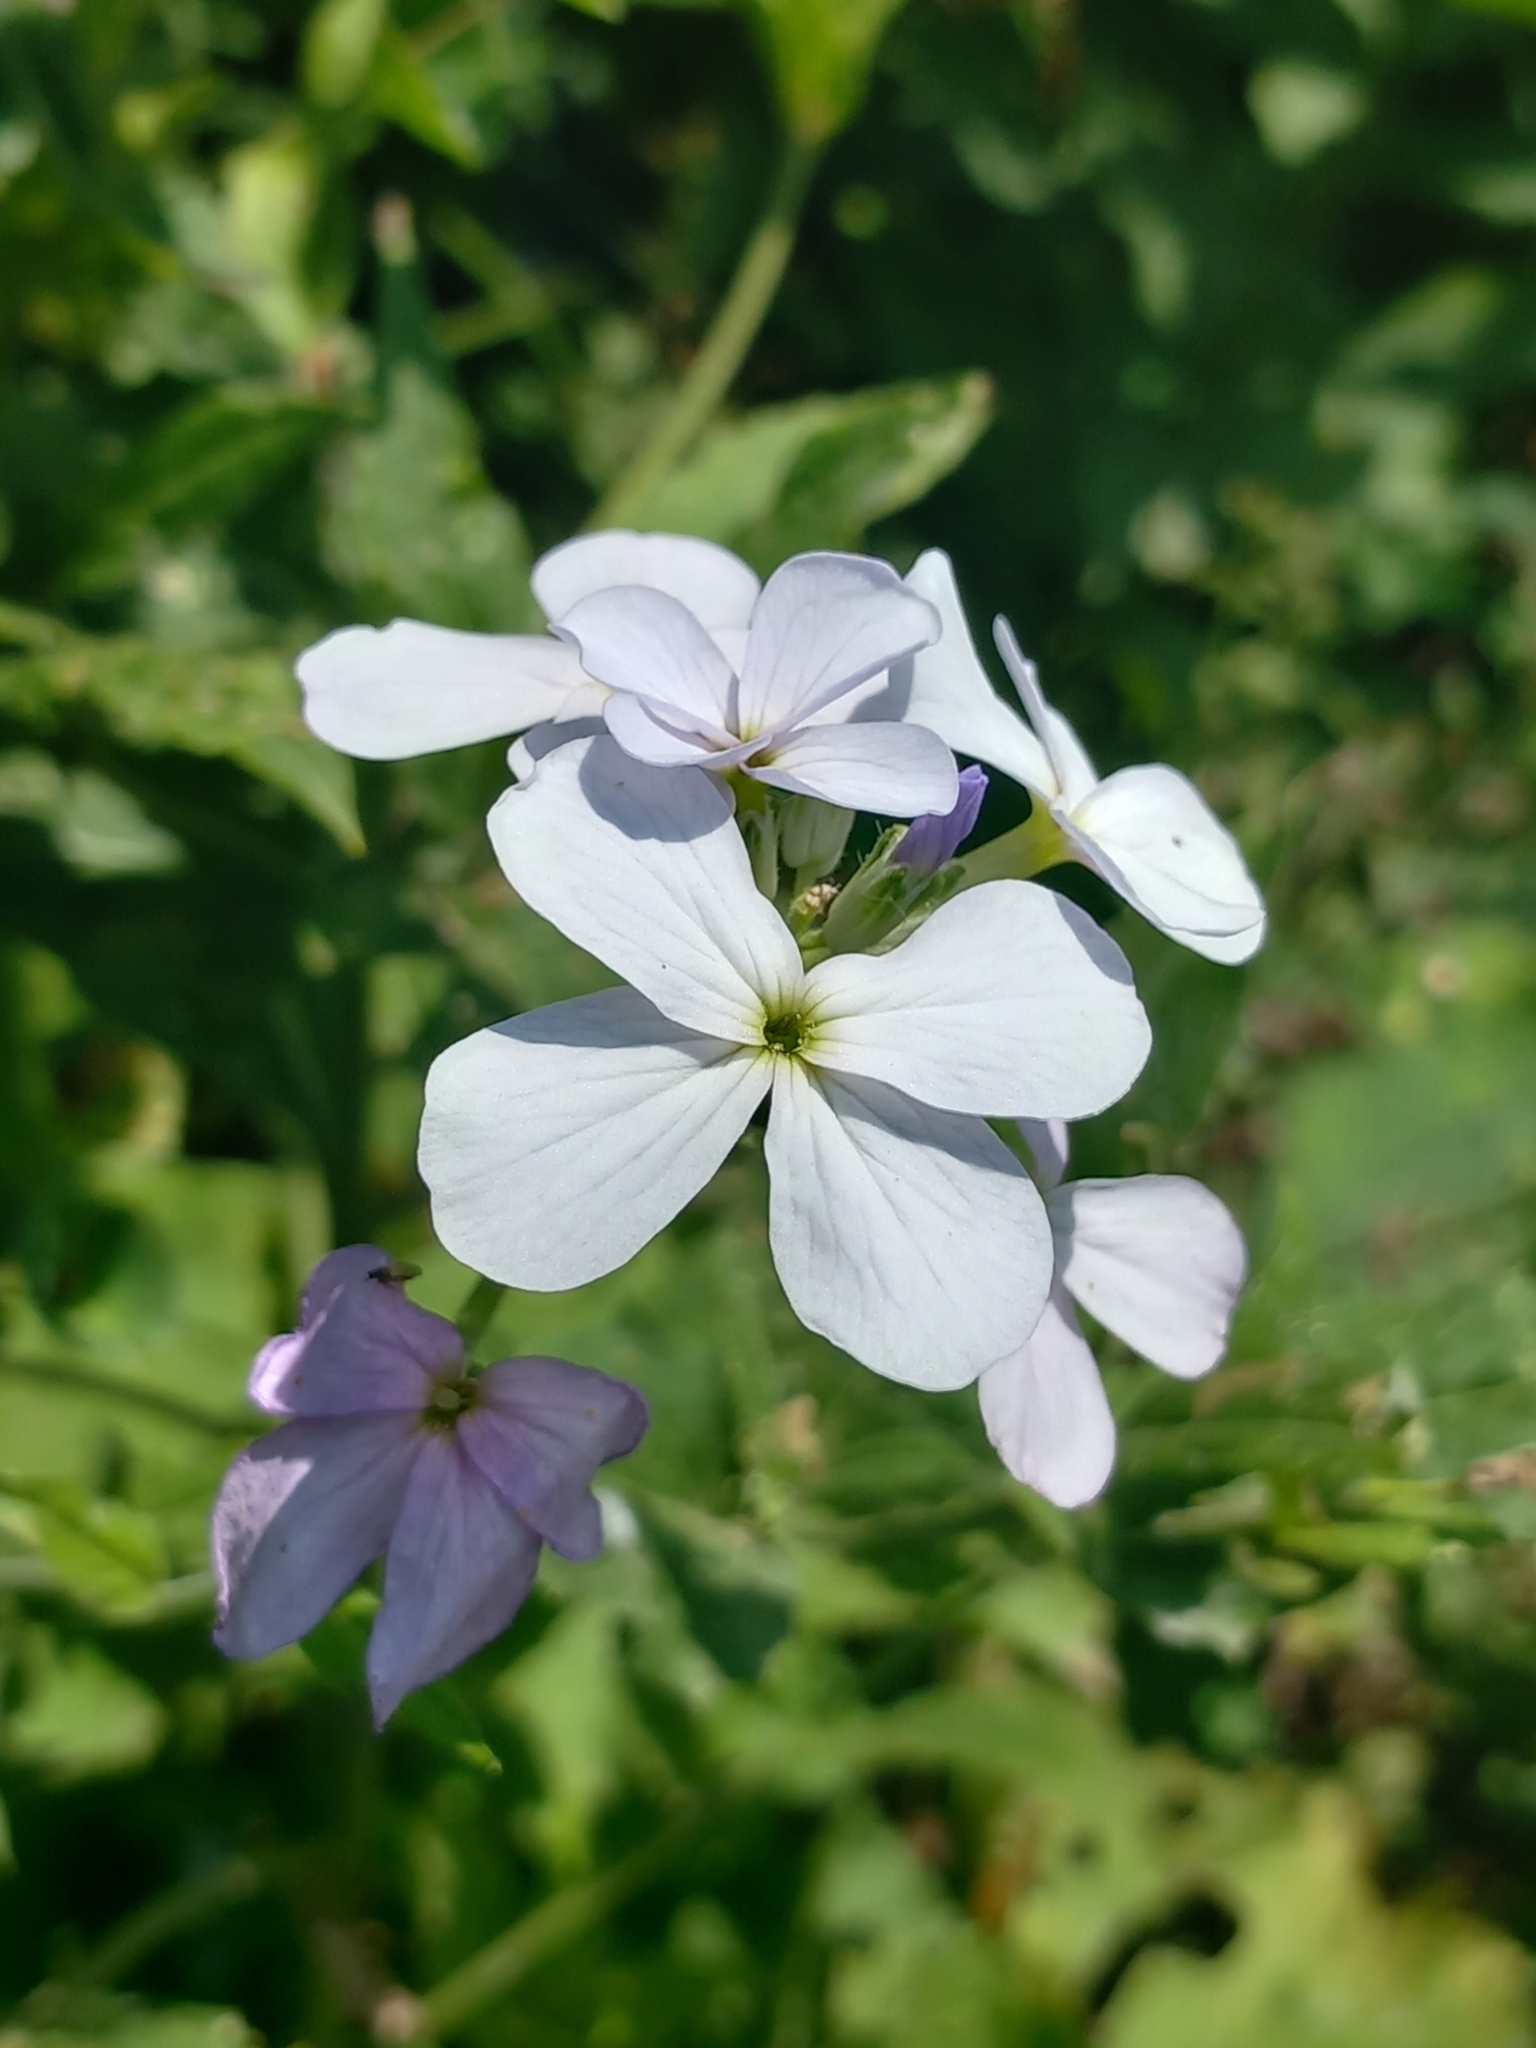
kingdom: Plantae
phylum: Tracheophyta
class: Magnoliopsida
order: Brassicales
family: Brassicaceae
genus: Hesperis
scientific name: Hesperis matronalis
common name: Dame's-violet
